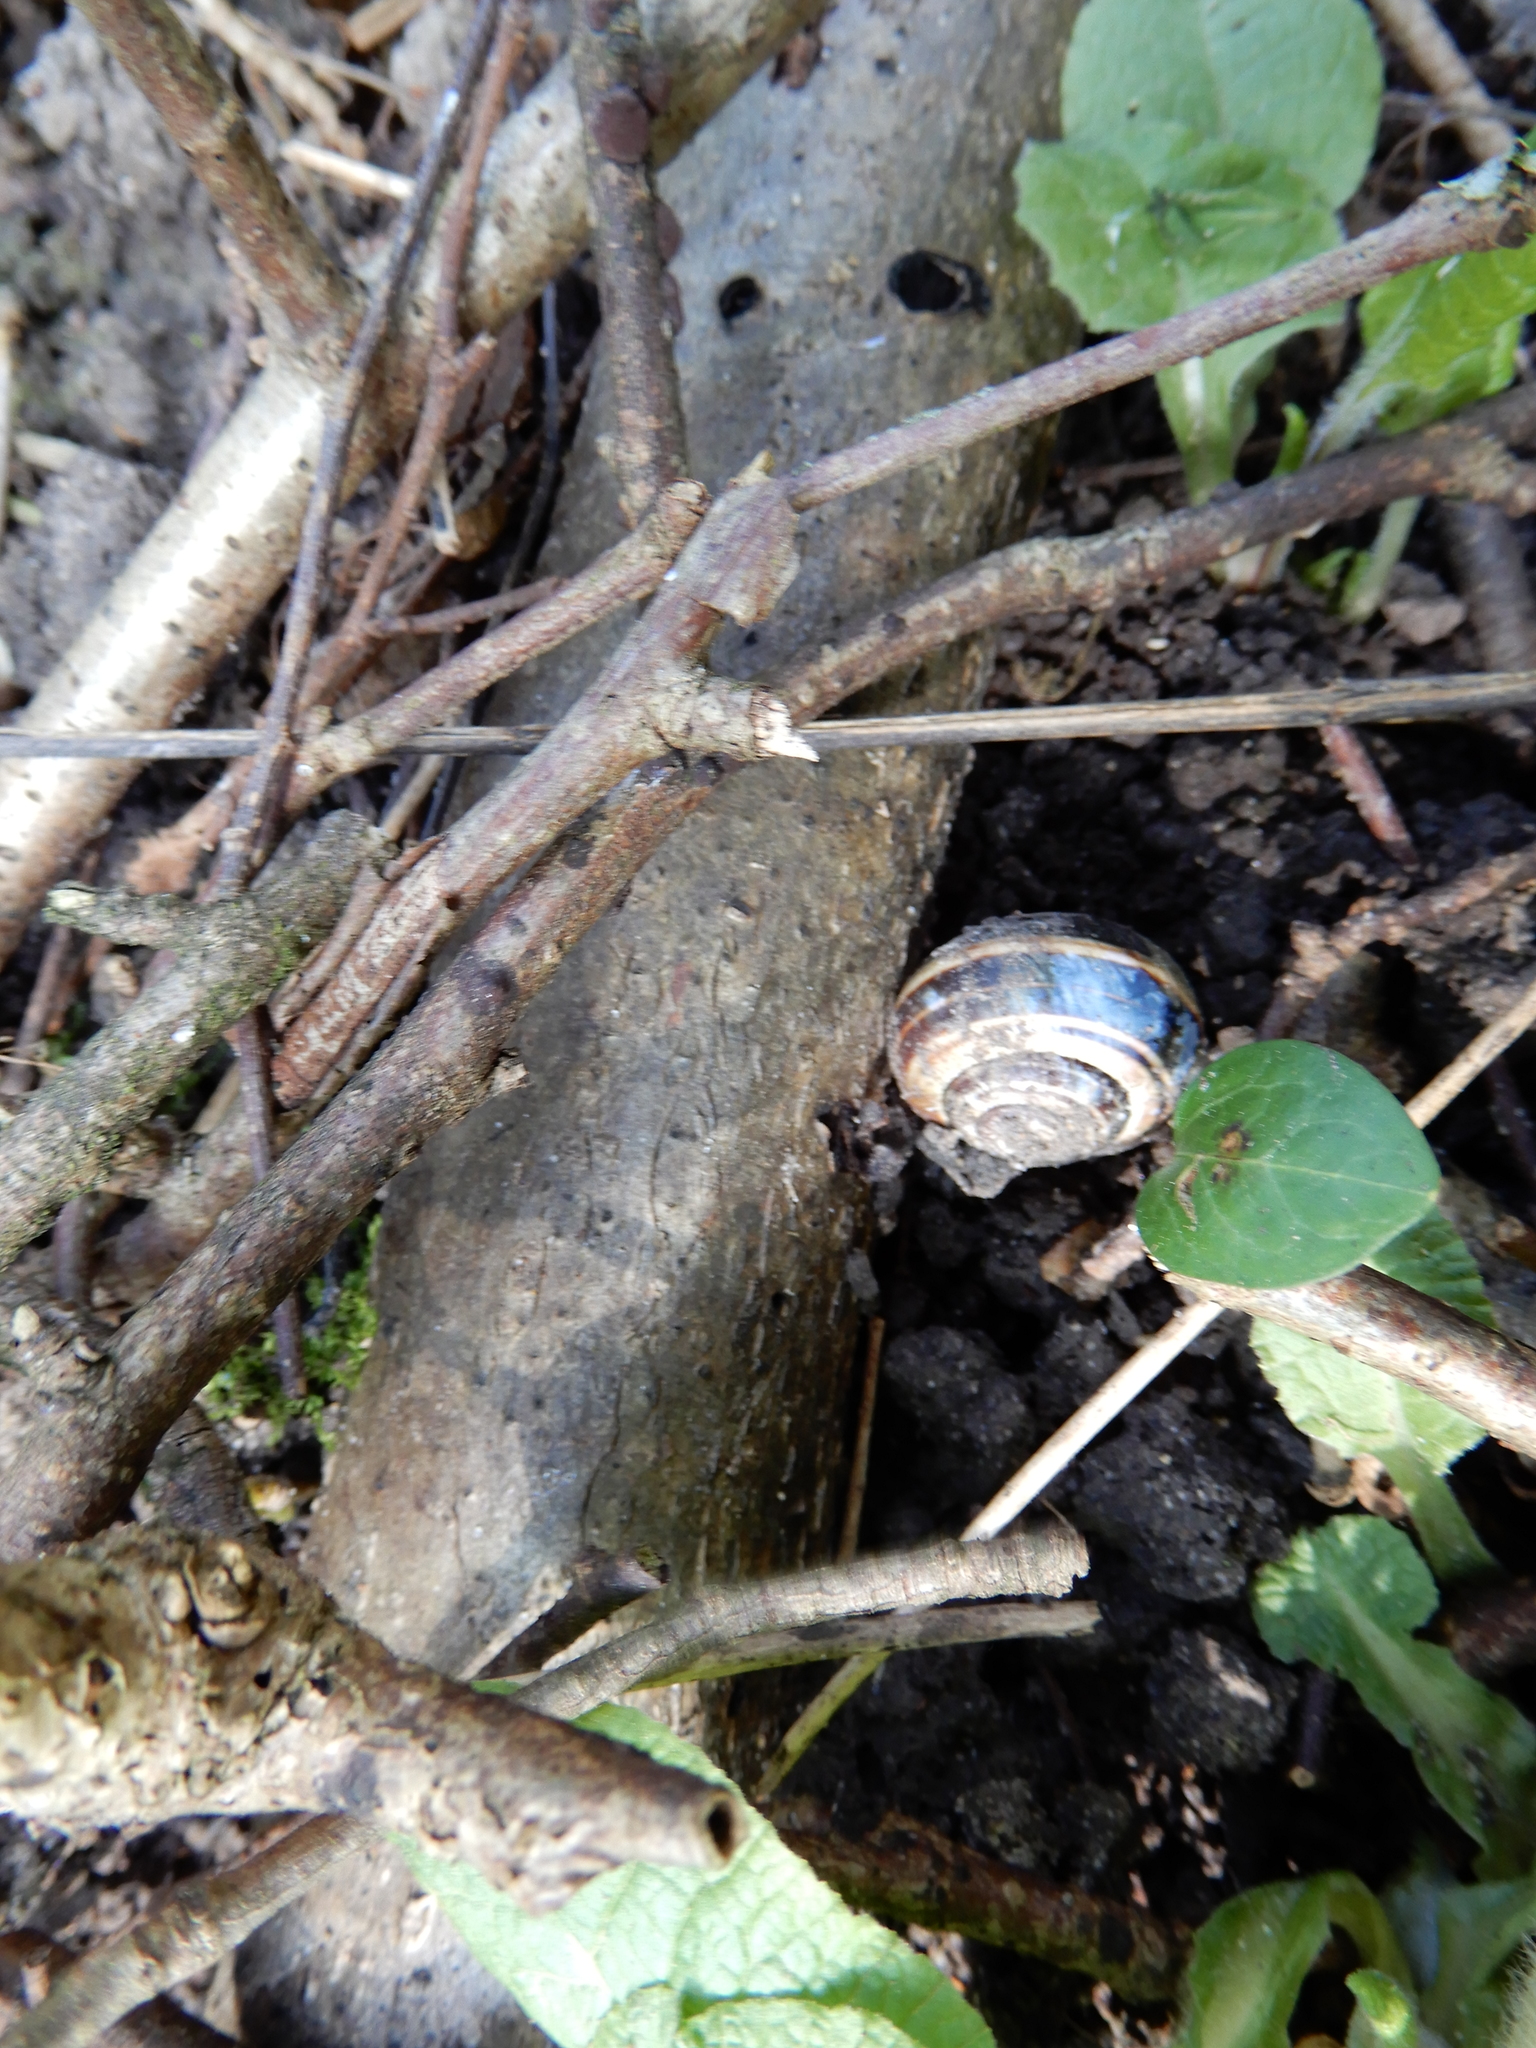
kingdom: Animalia
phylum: Mollusca
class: Gastropoda
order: Stylommatophora
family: Helicidae
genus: Cepaea
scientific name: Cepaea nemoralis
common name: Grovesnail
